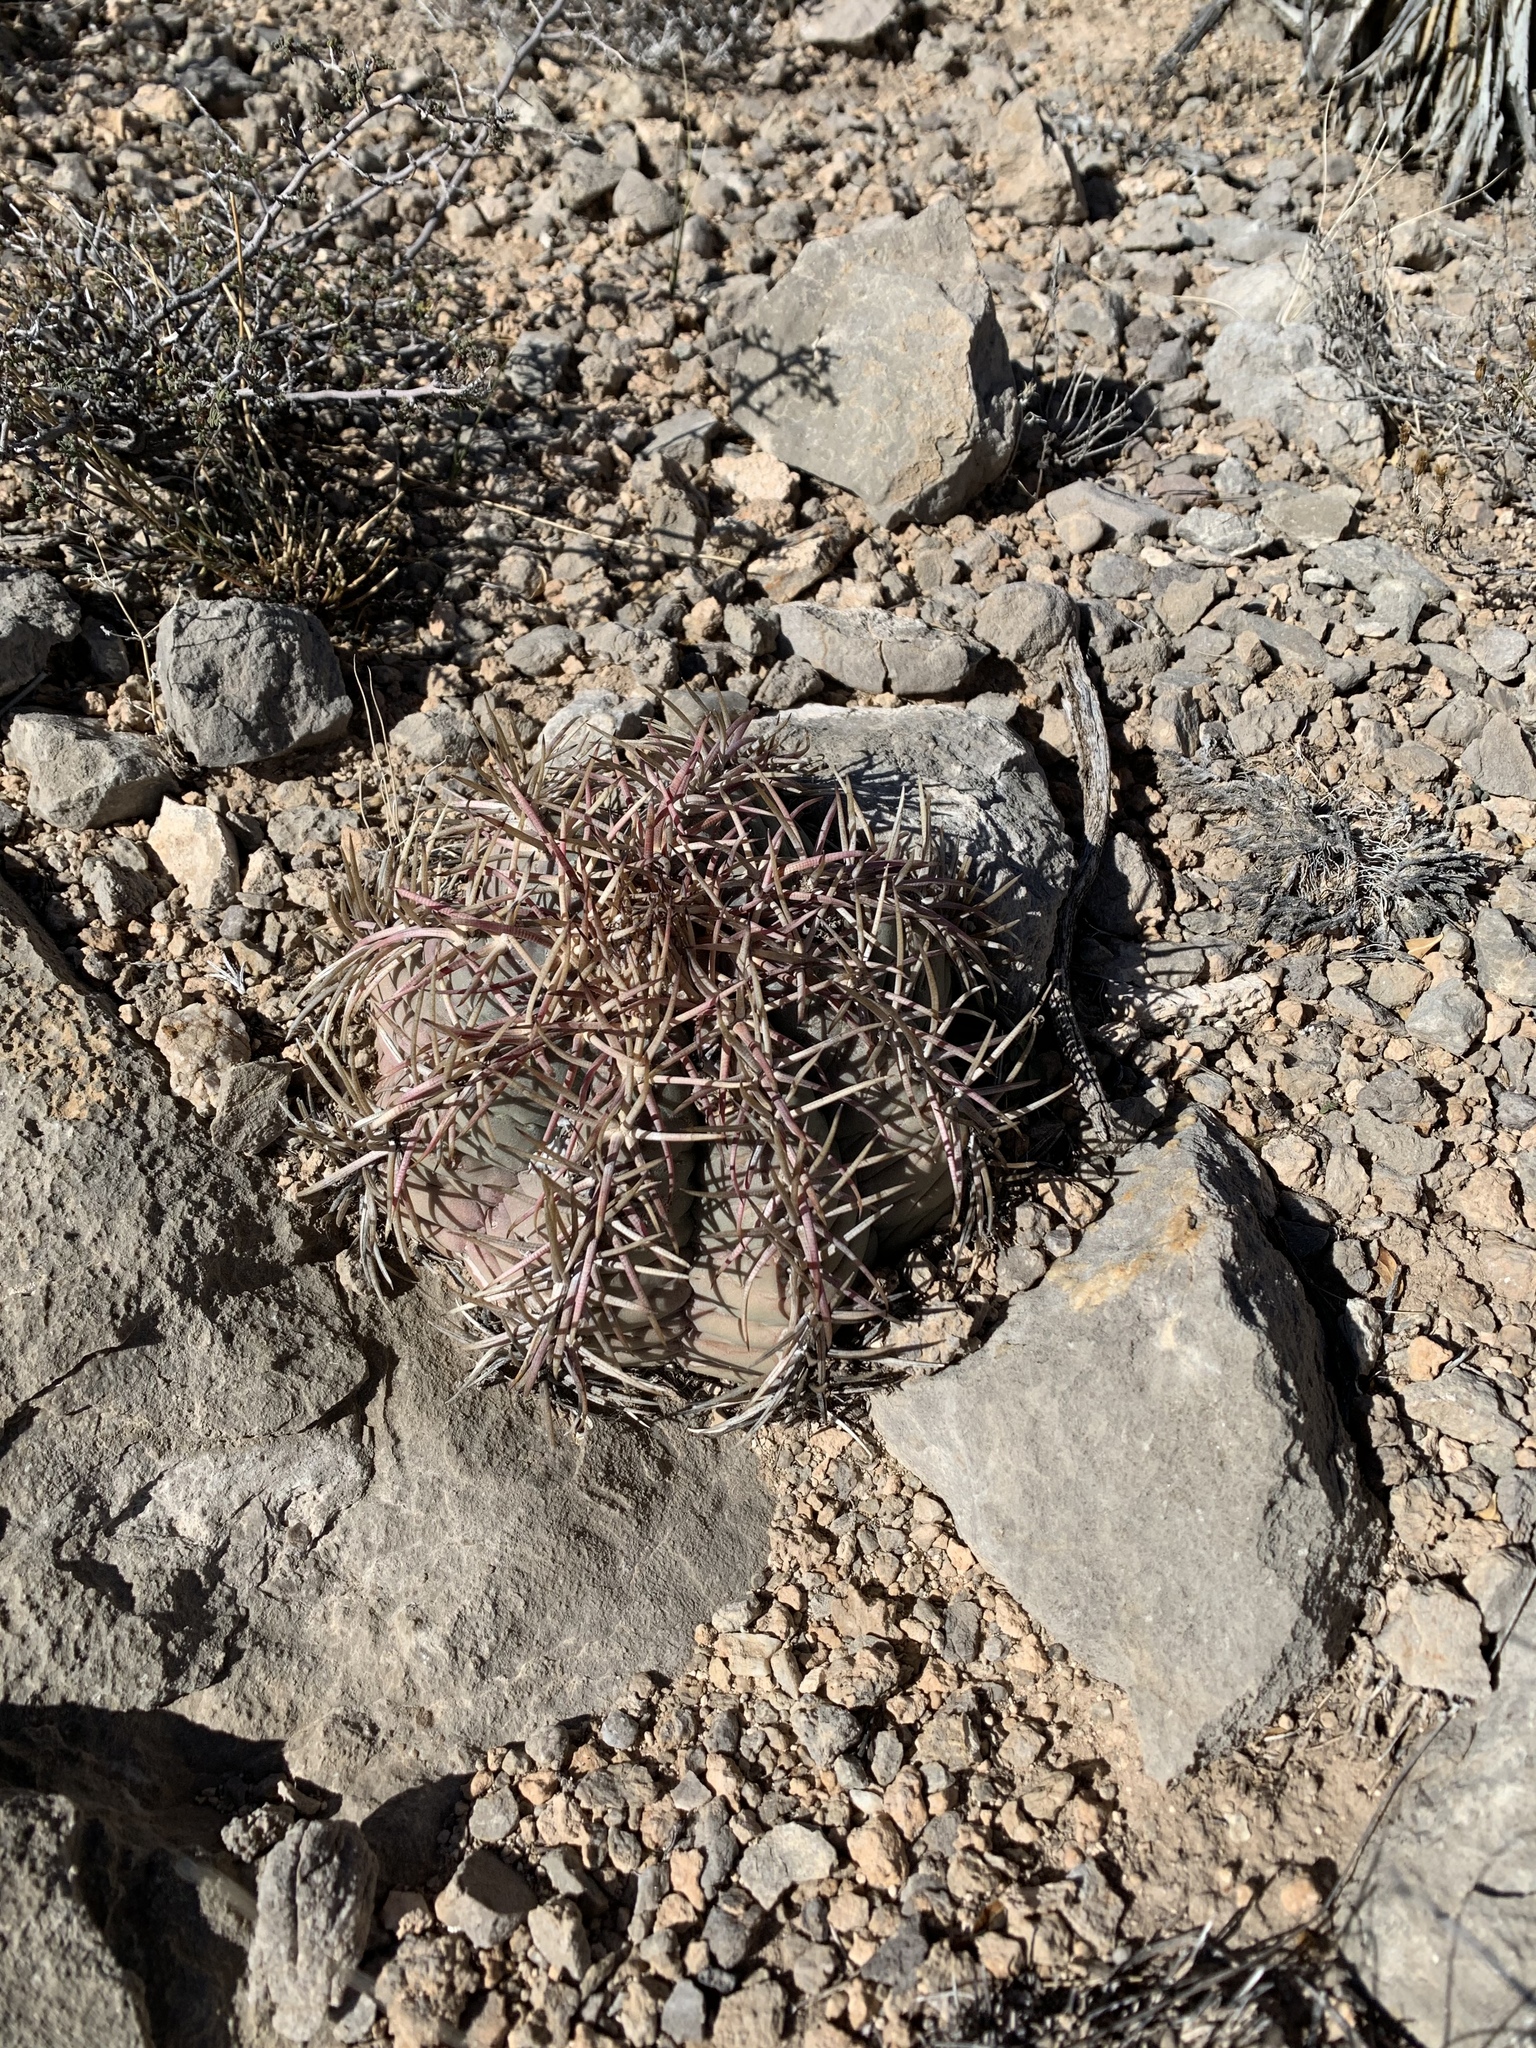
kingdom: Plantae
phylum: Tracheophyta
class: Magnoliopsida
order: Caryophyllales
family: Cactaceae
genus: Echinocactus
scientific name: Echinocactus horizonthalonius
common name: Devilshead
